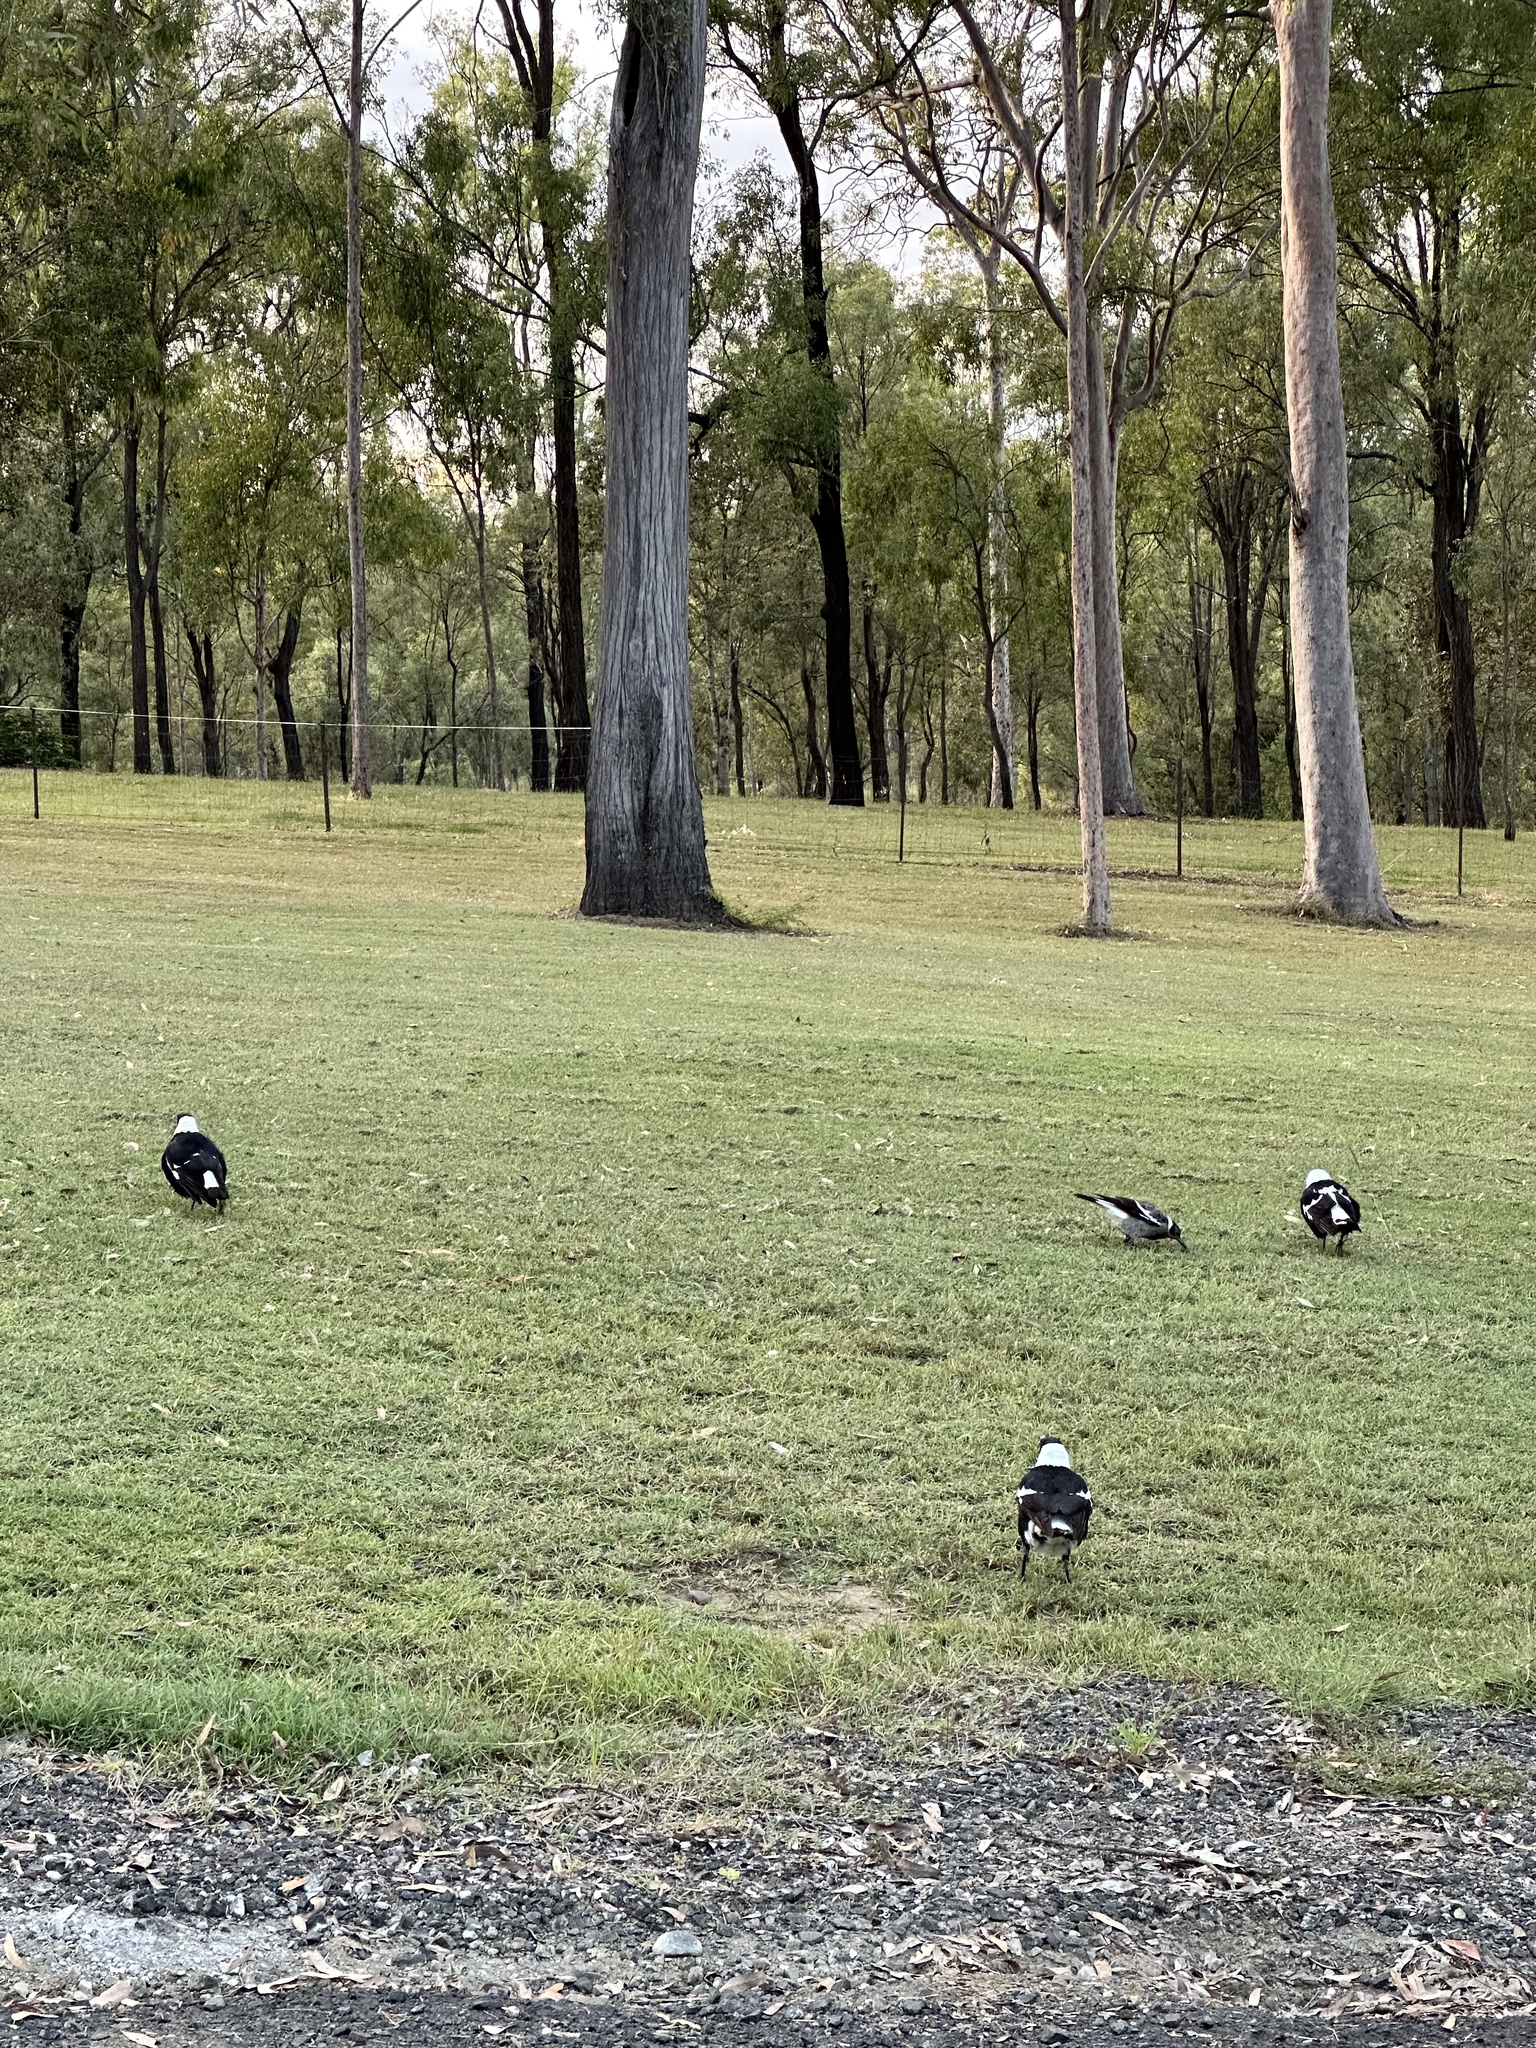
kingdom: Animalia
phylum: Chordata
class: Aves
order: Passeriformes
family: Cracticidae
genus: Gymnorhina
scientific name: Gymnorhina tibicen
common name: Australian magpie
